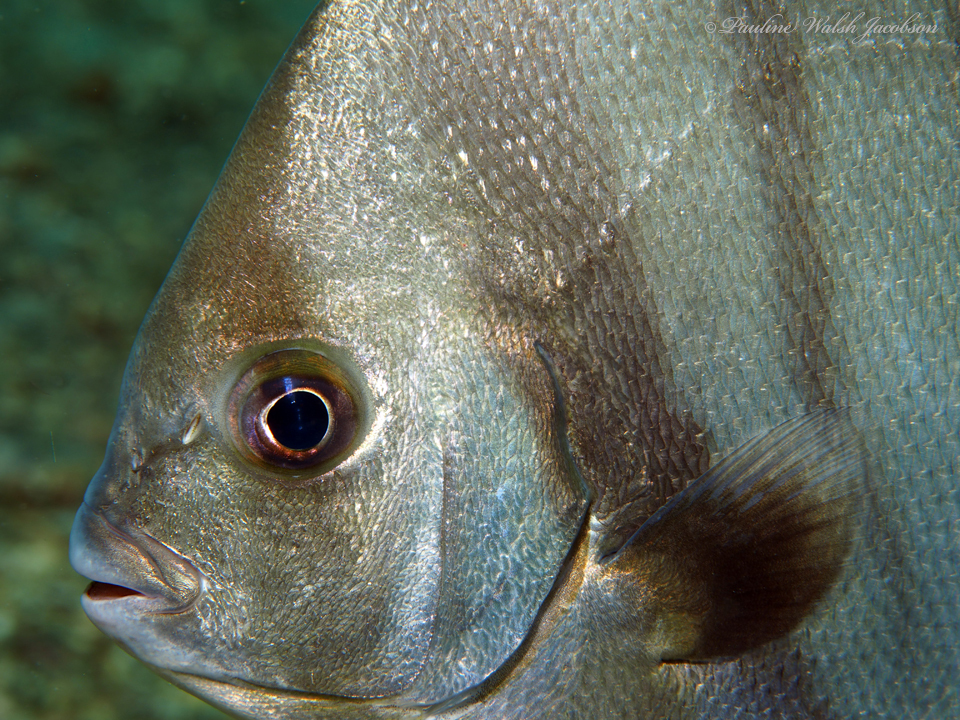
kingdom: Animalia
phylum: Chordata
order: Perciformes
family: Ephippidae
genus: Chaetodipterus
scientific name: Chaetodipterus faber
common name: Ocean cobbler
